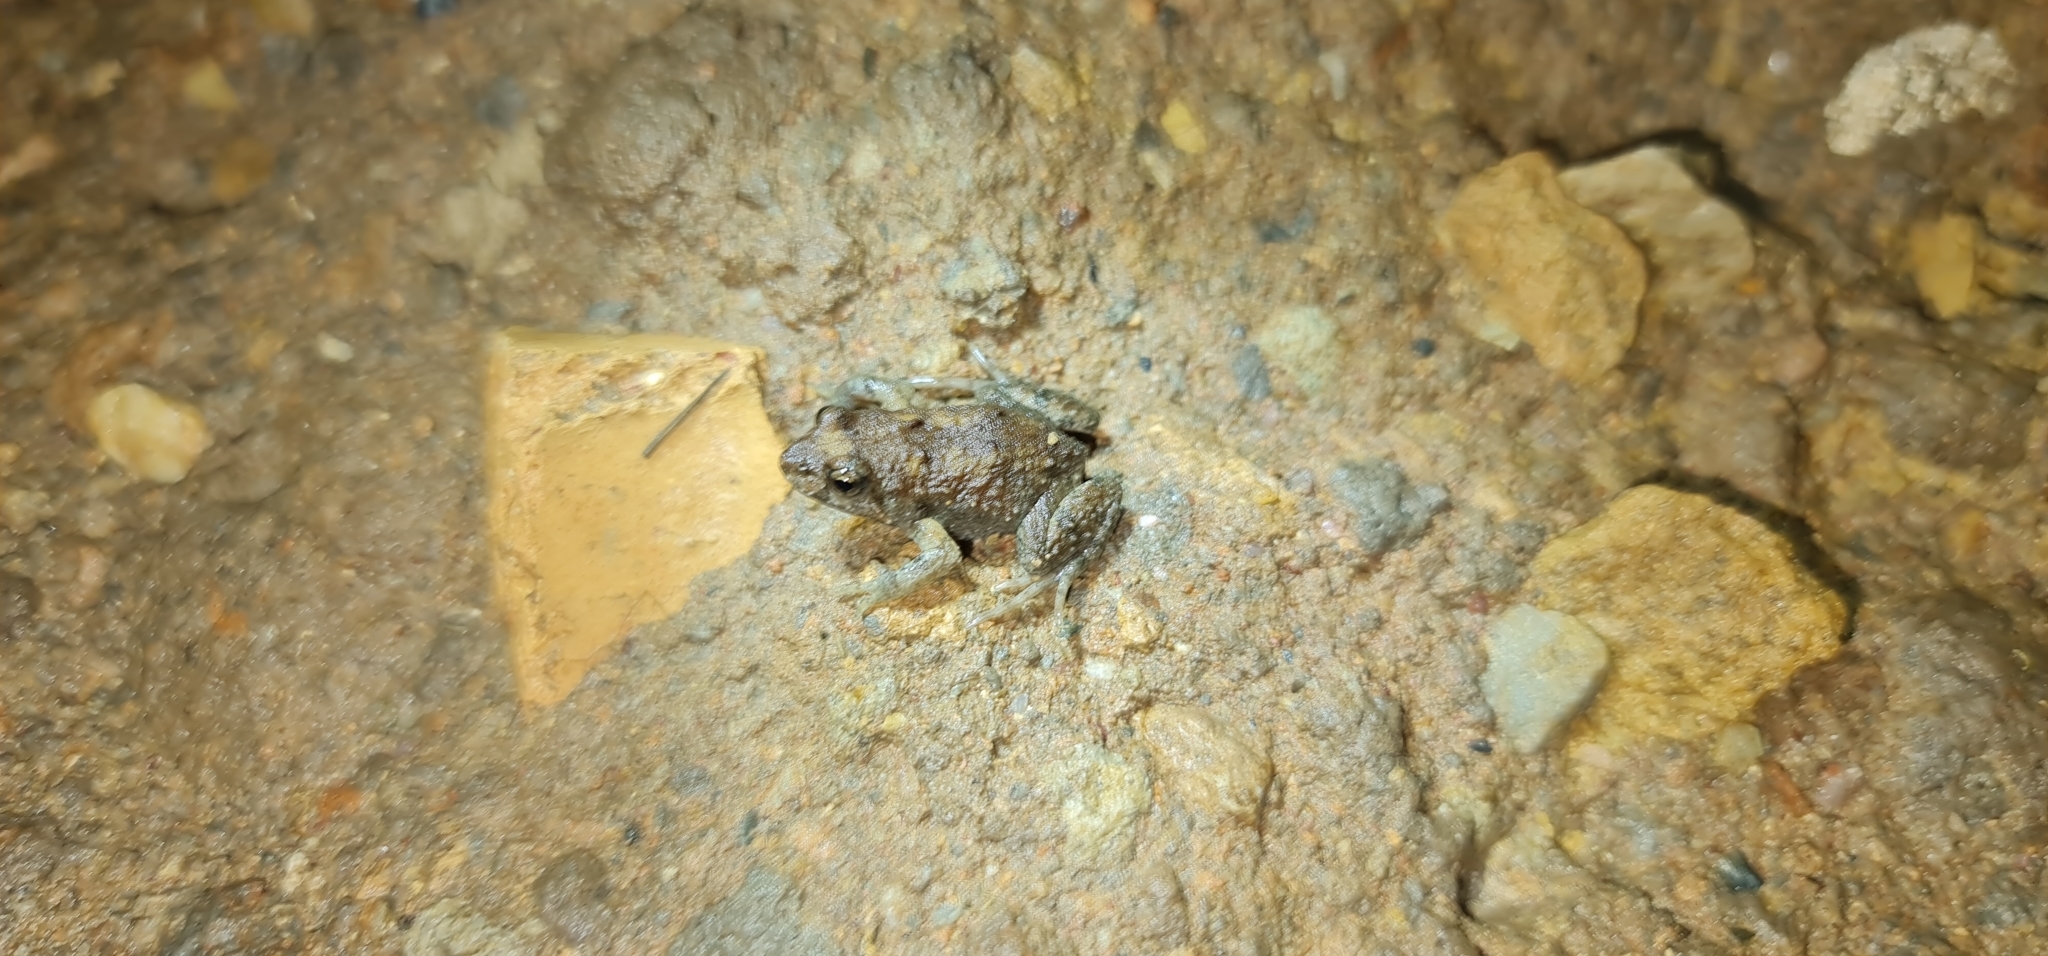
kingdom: Animalia
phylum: Chordata
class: Amphibia
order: Anura
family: Myobatrachidae
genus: Crinia
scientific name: Crinia signifera
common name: Brown froglet
